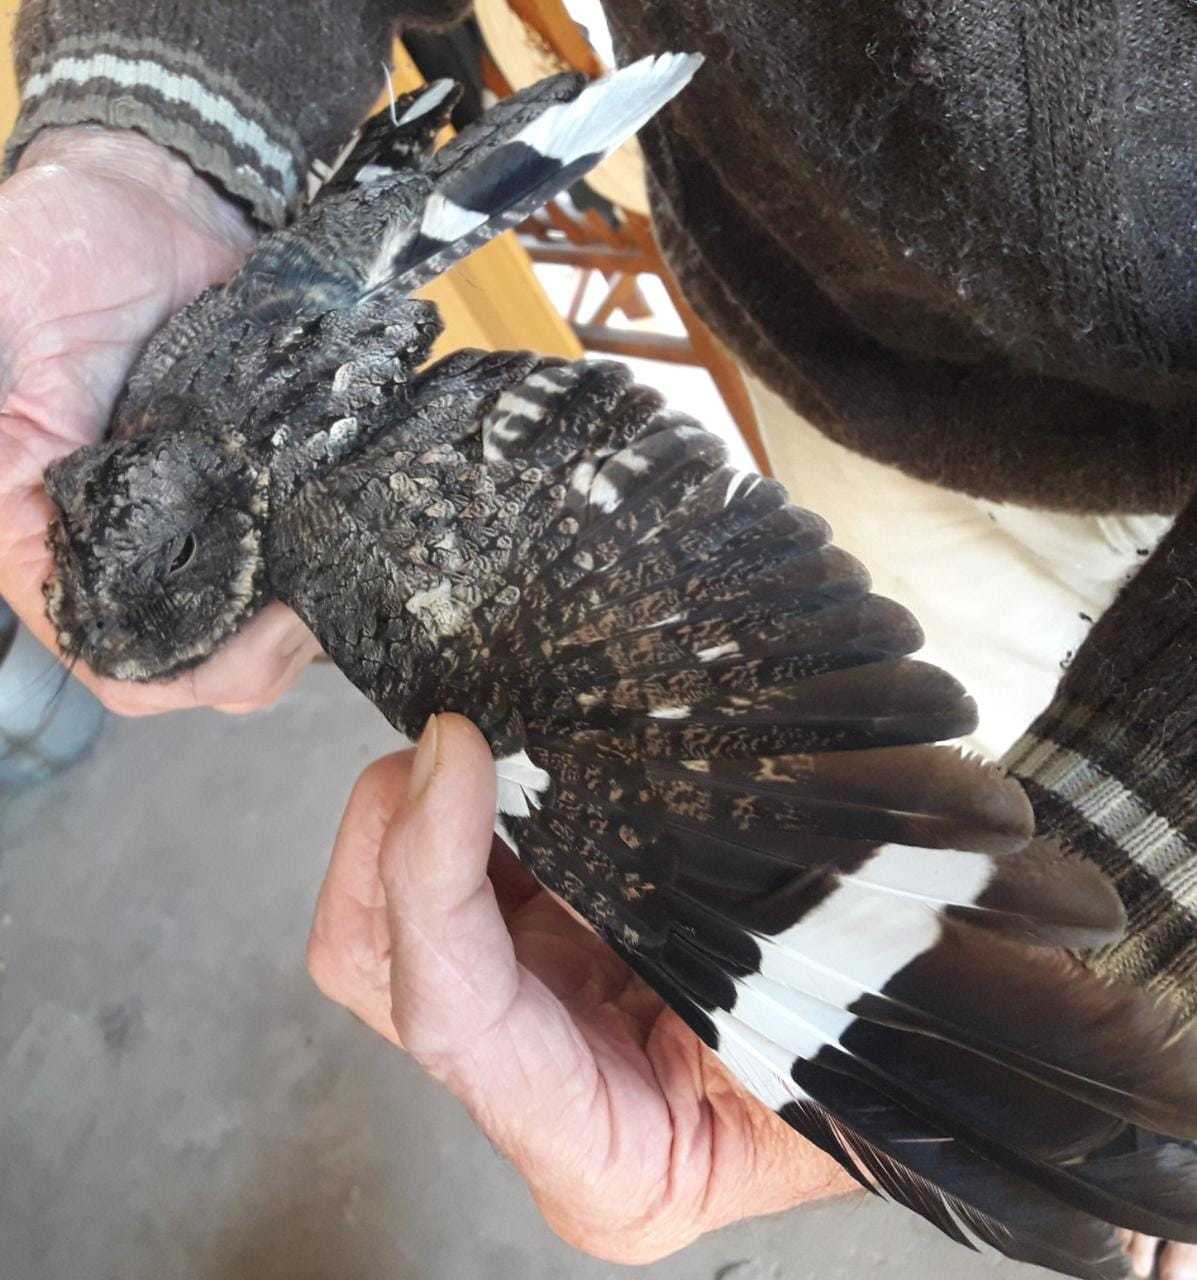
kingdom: Animalia
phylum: Chordata
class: Aves
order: Caprimulgiformes
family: Caprimulgidae
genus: Systellura
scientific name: Systellura longirostris
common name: Band-winged nightjar
